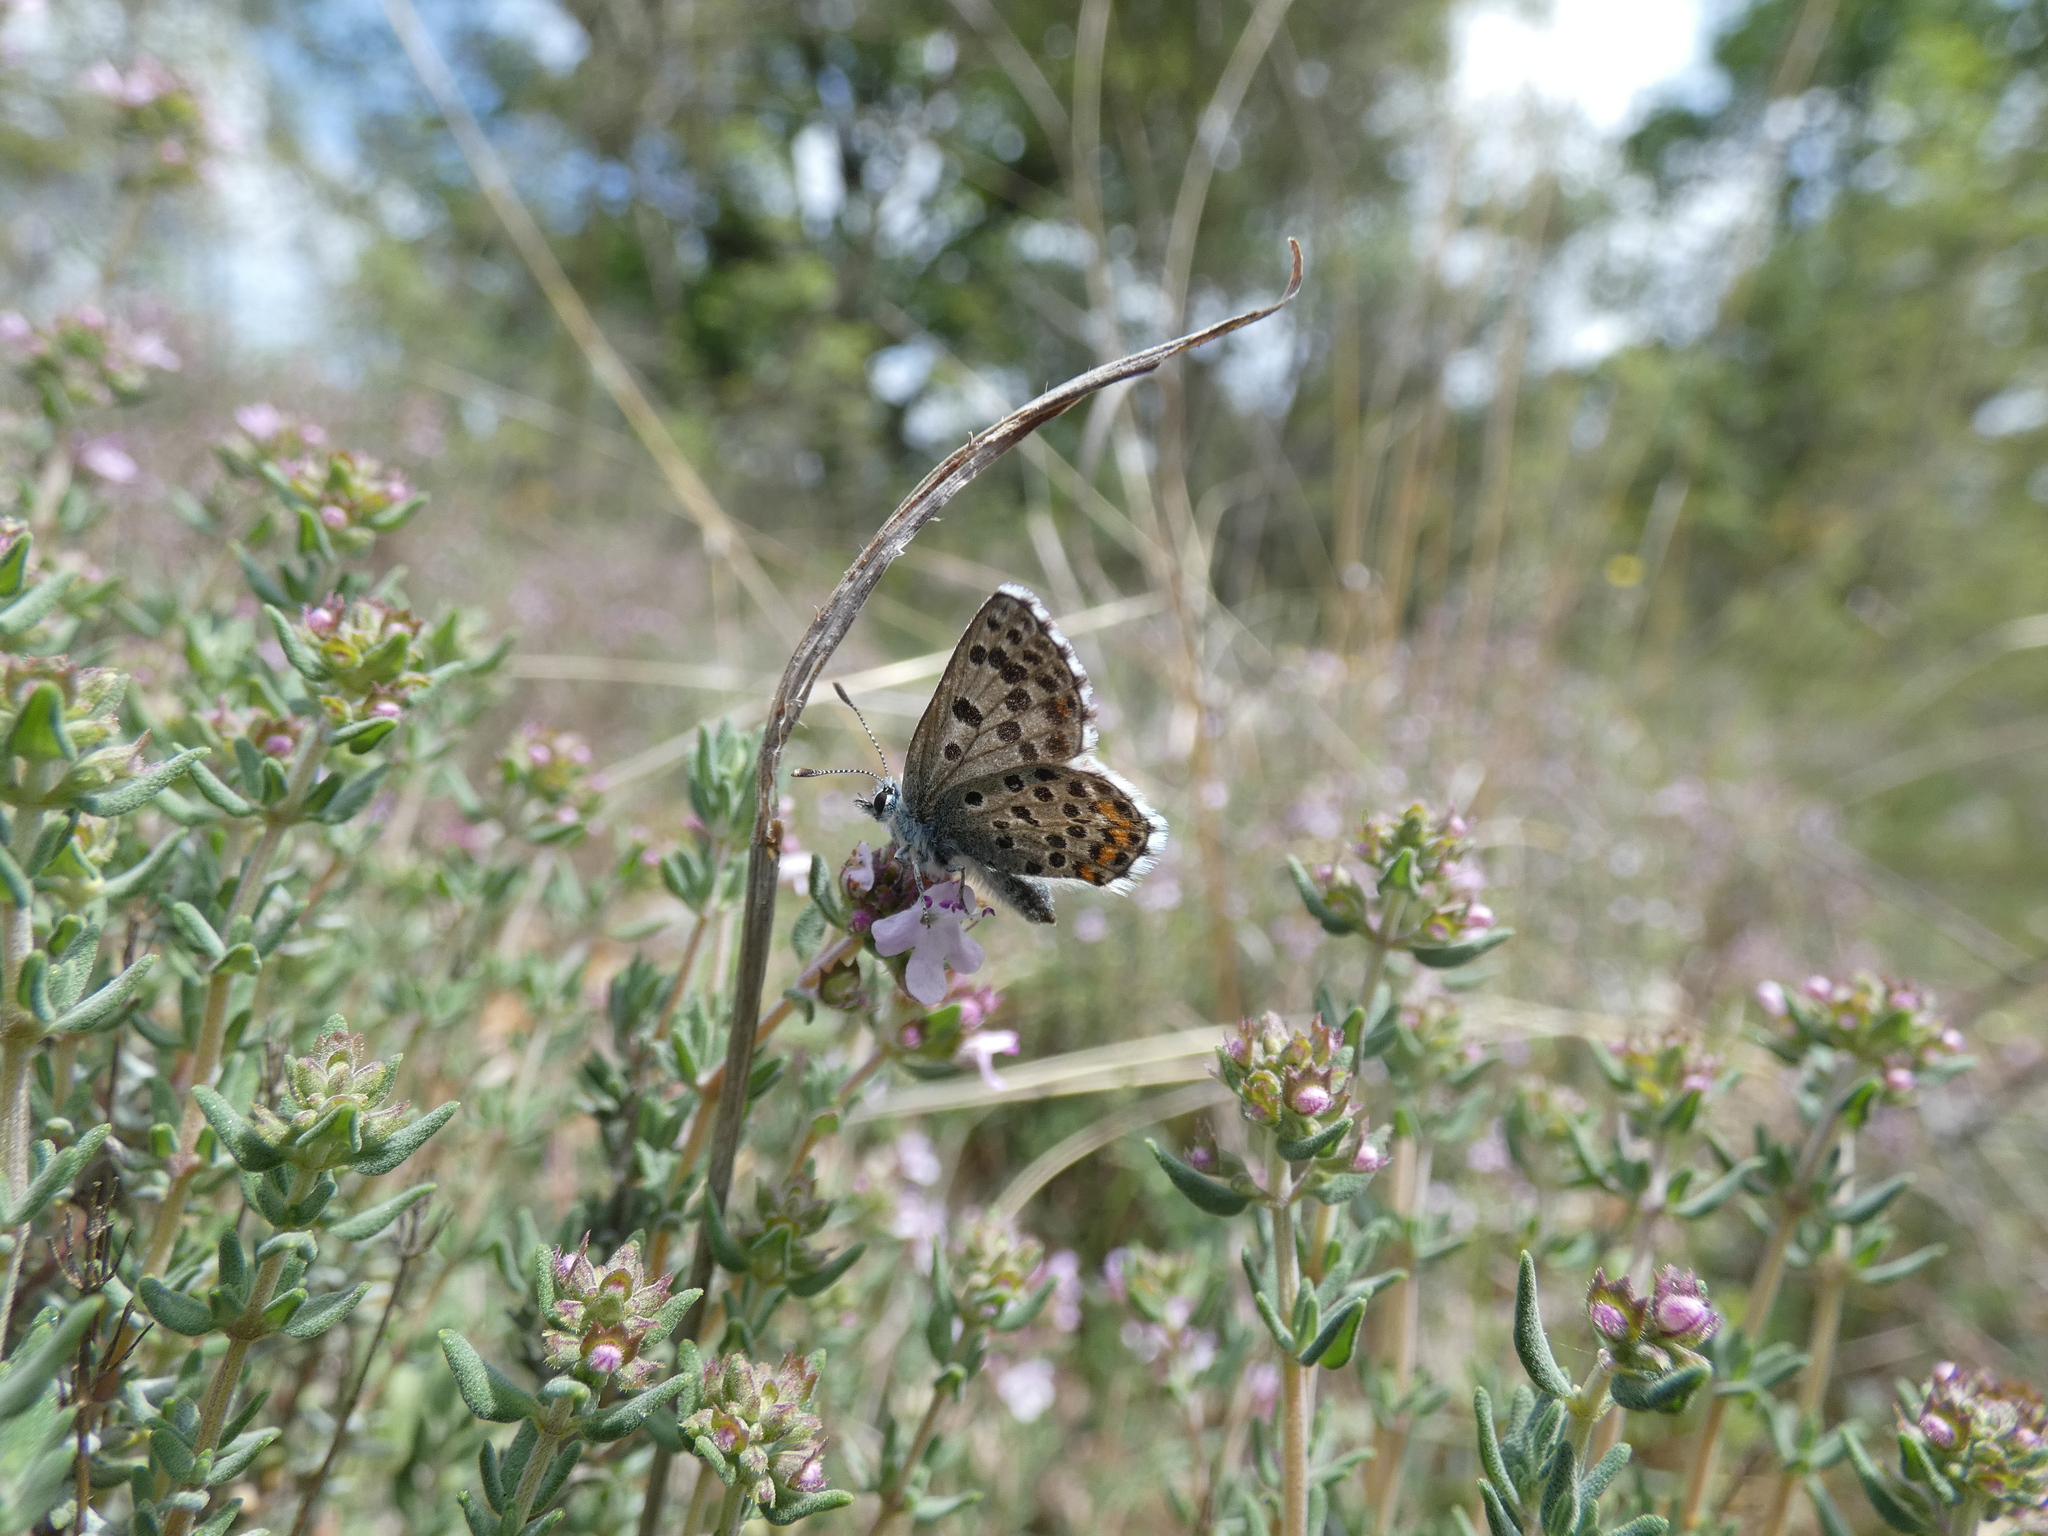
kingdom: Animalia
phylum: Arthropoda
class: Insecta
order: Lepidoptera
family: Lycaenidae
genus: Pseudophilotes
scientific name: Pseudophilotes baton
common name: Baton blue
